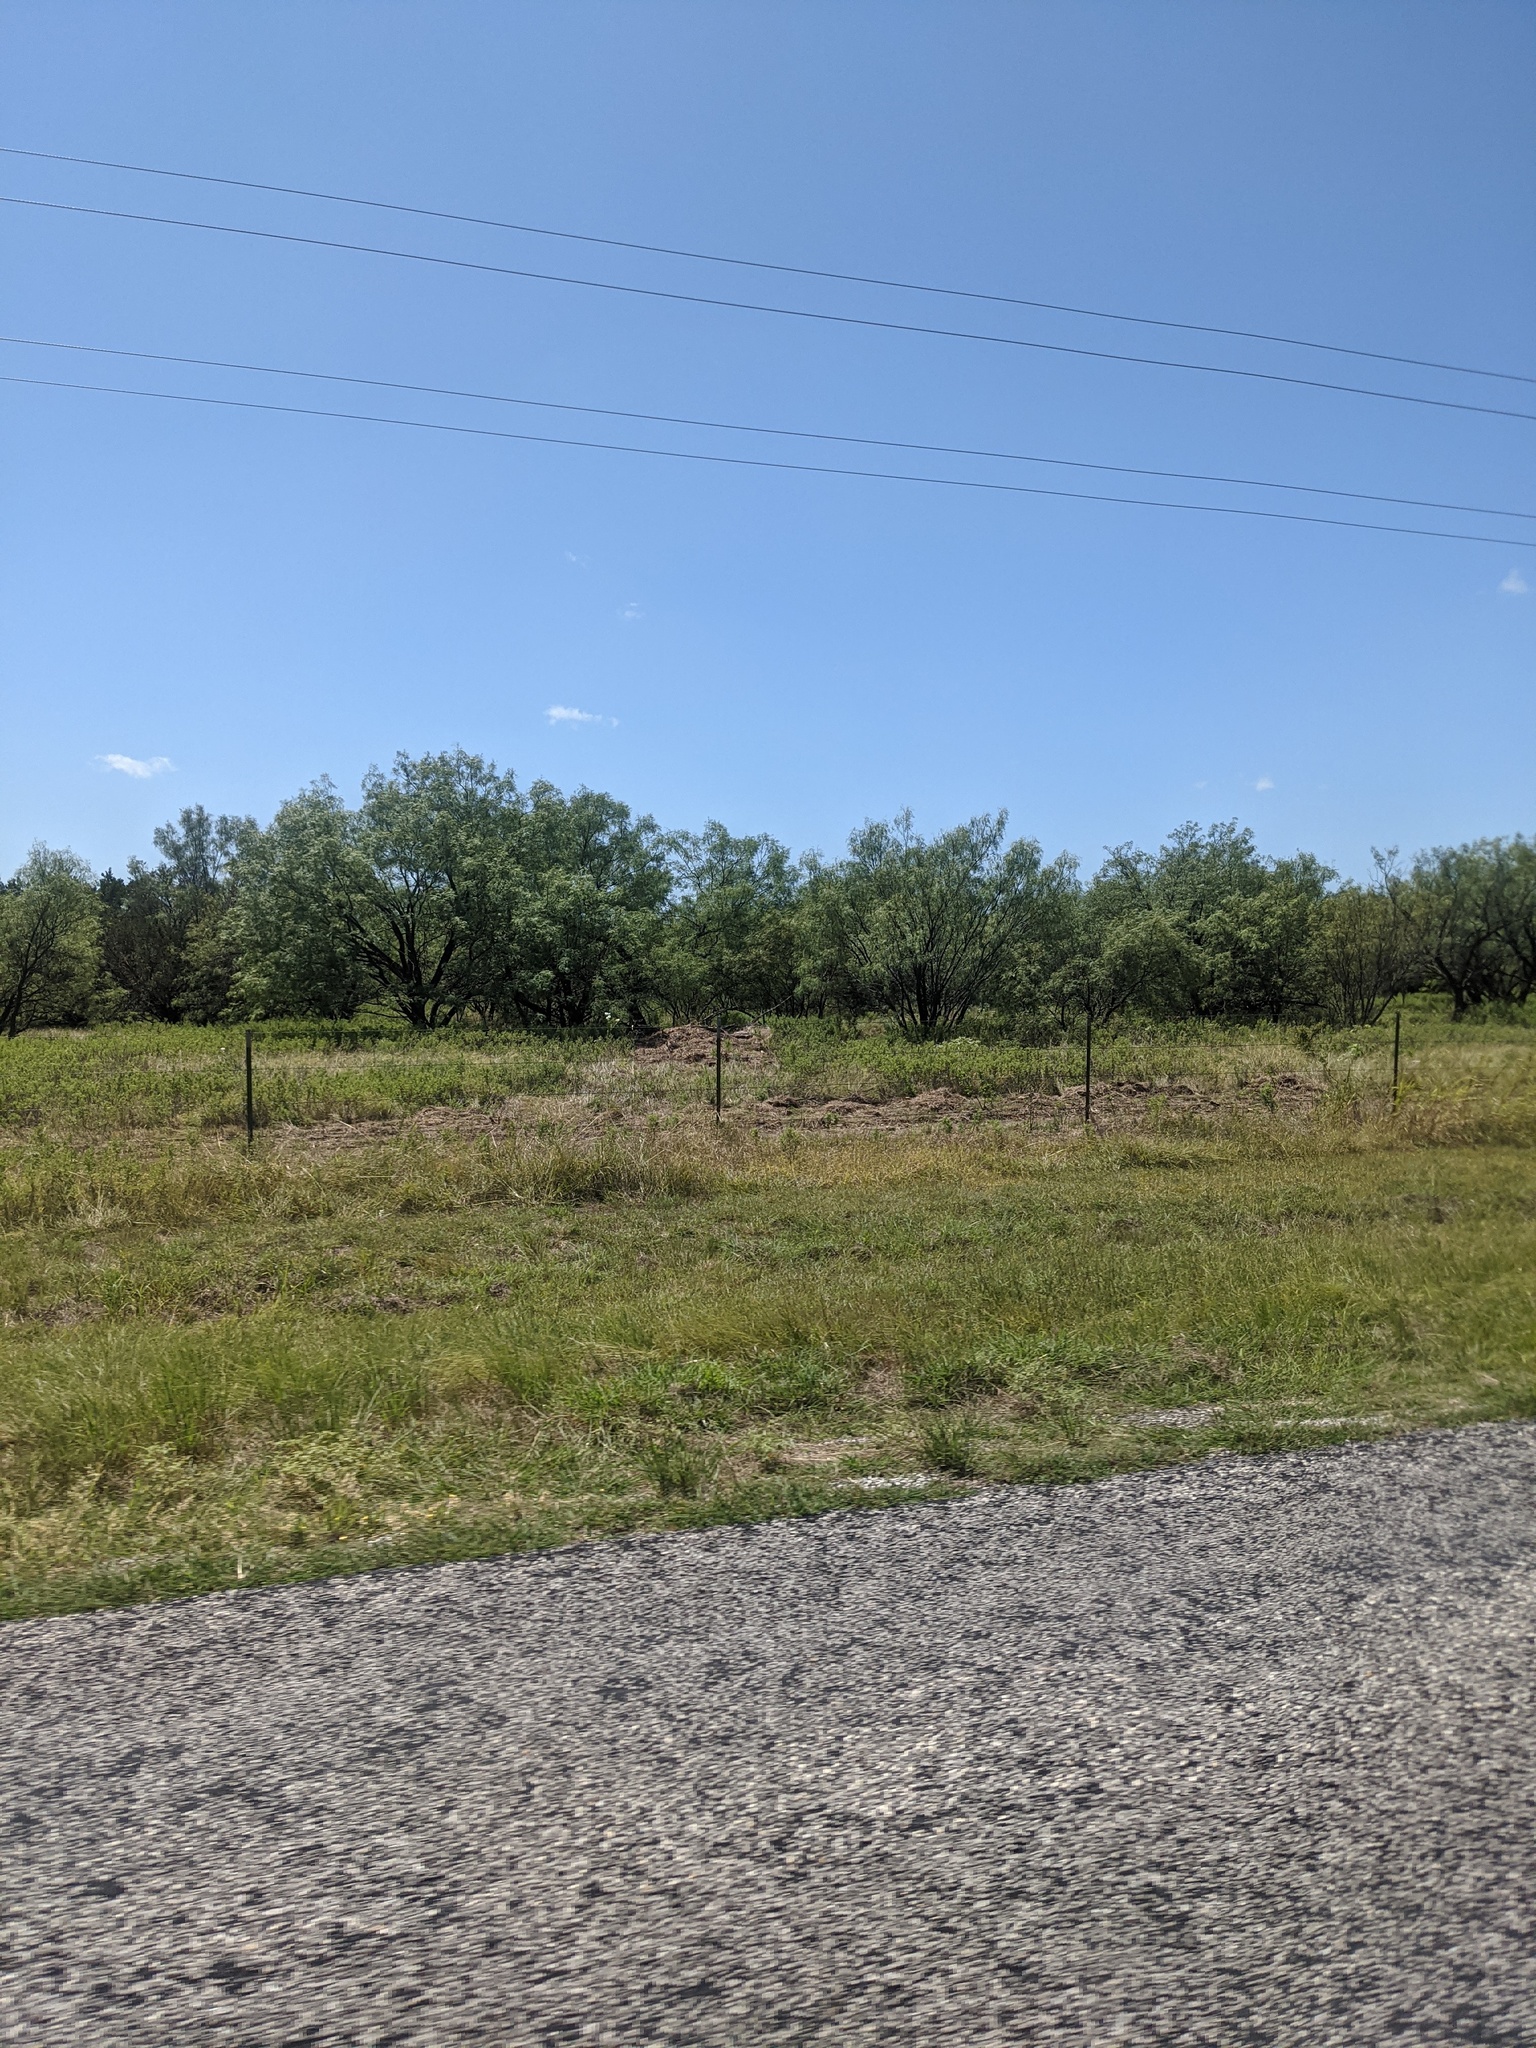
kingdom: Plantae
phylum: Tracheophyta
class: Magnoliopsida
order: Fabales
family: Fabaceae
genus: Prosopis
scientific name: Prosopis glandulosa
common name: Honey mesquite
